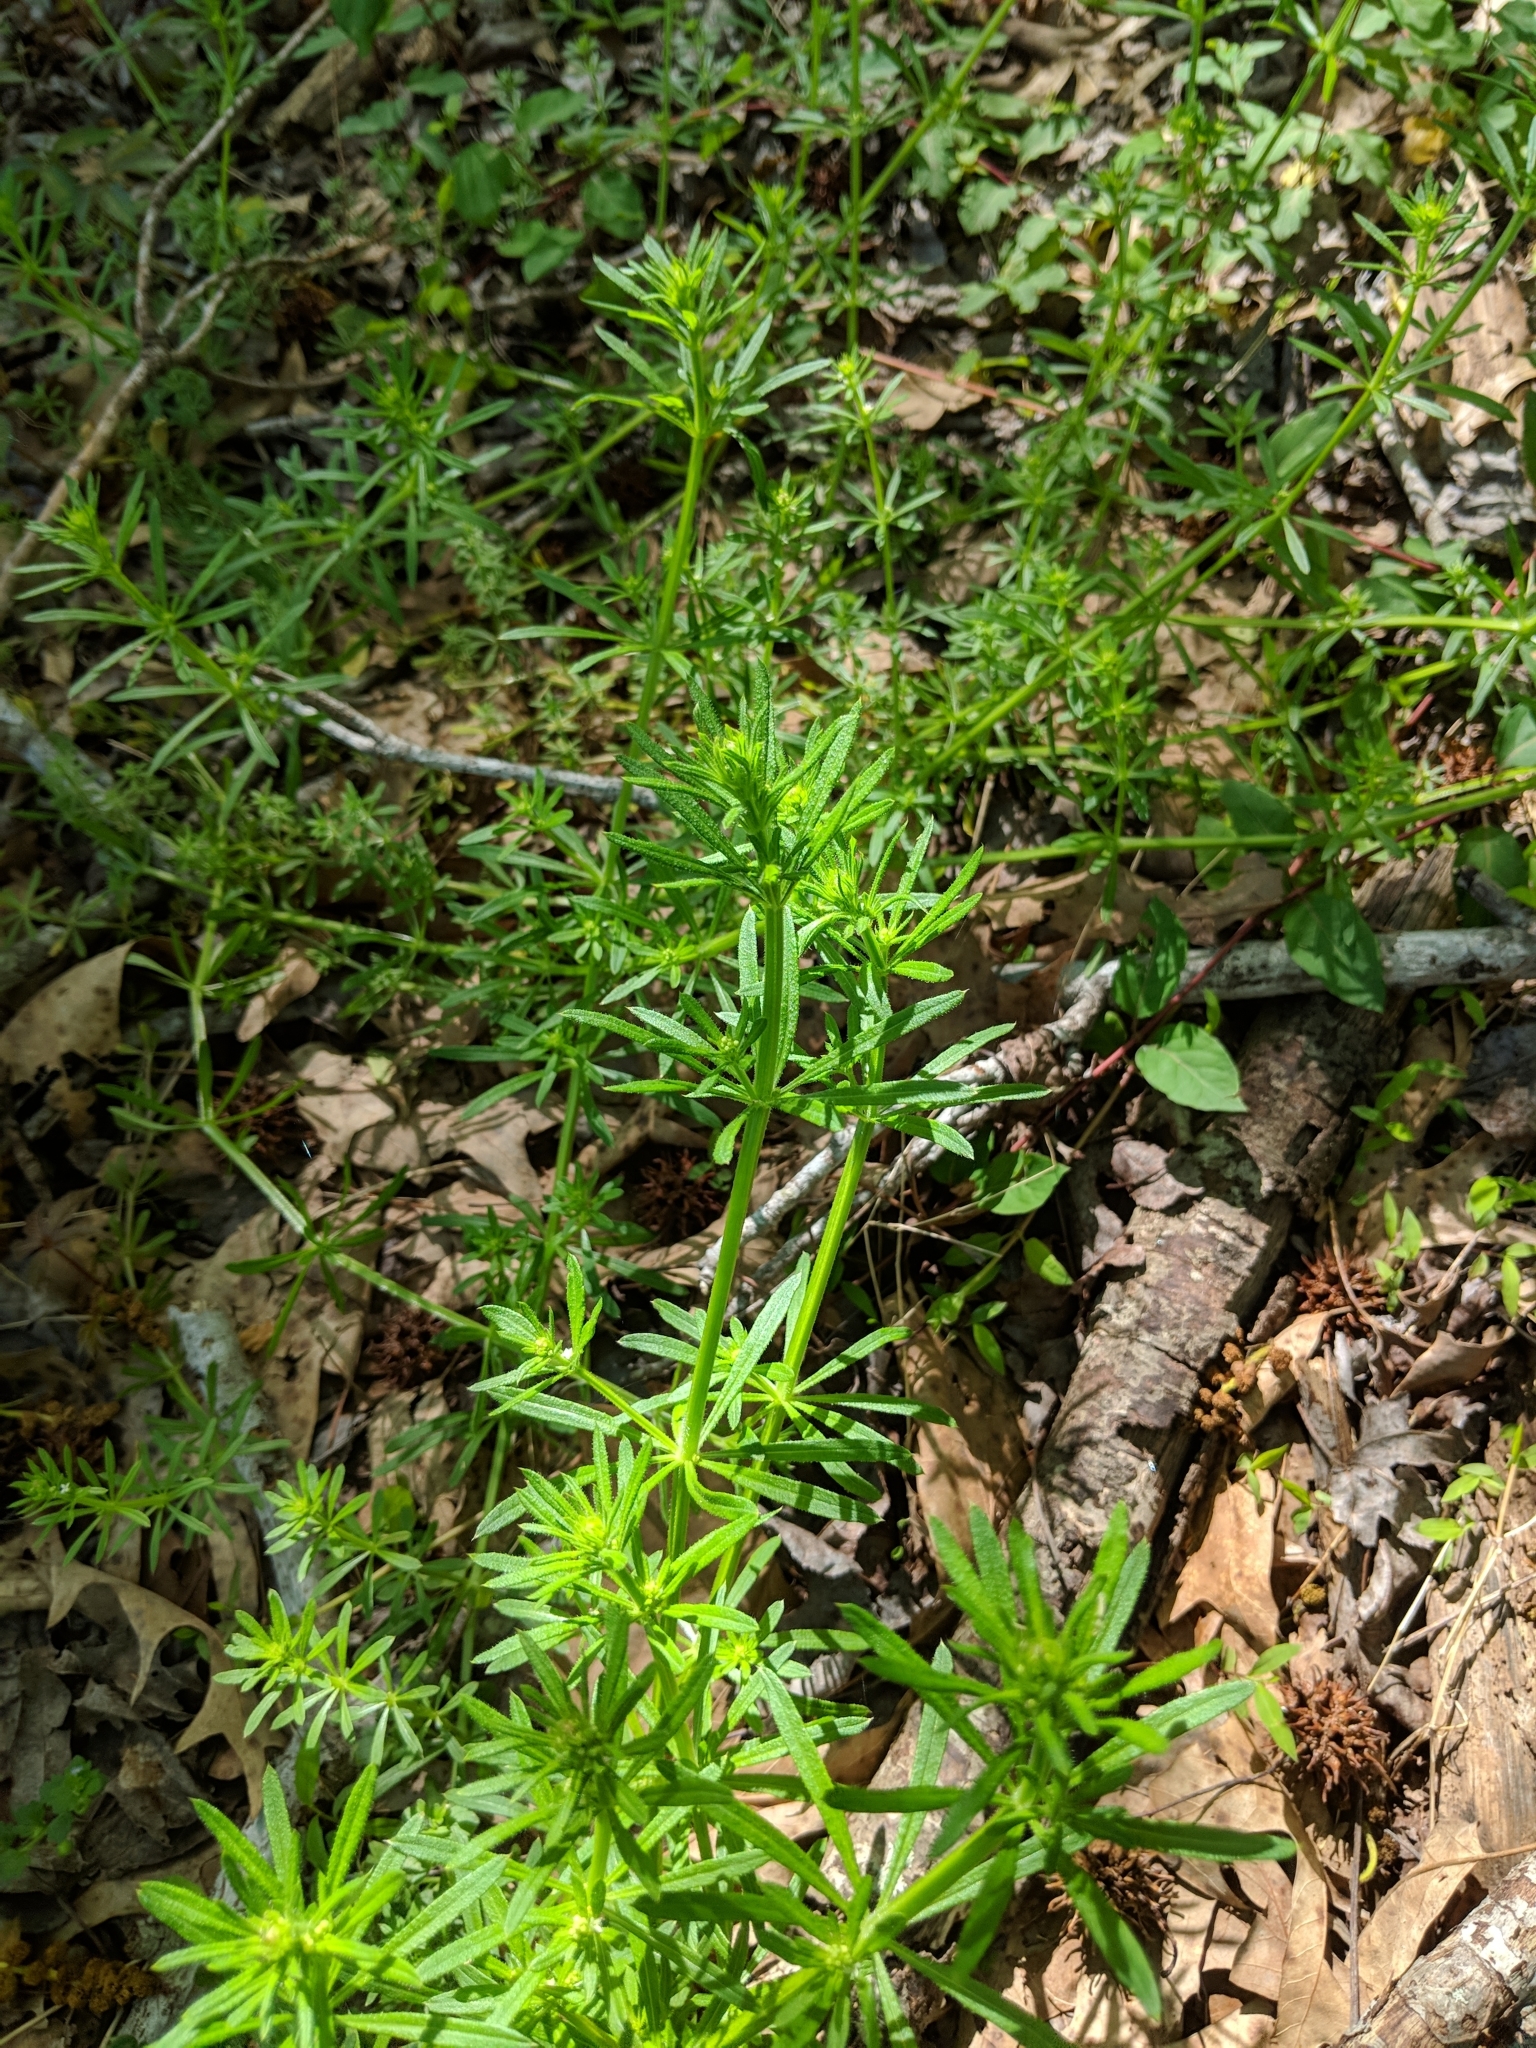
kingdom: Plantae
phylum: Tracheophyta
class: Magnoliopsida
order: Gentianales
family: Rubiaceae
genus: Galium
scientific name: Galium aparine
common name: Cleavers
